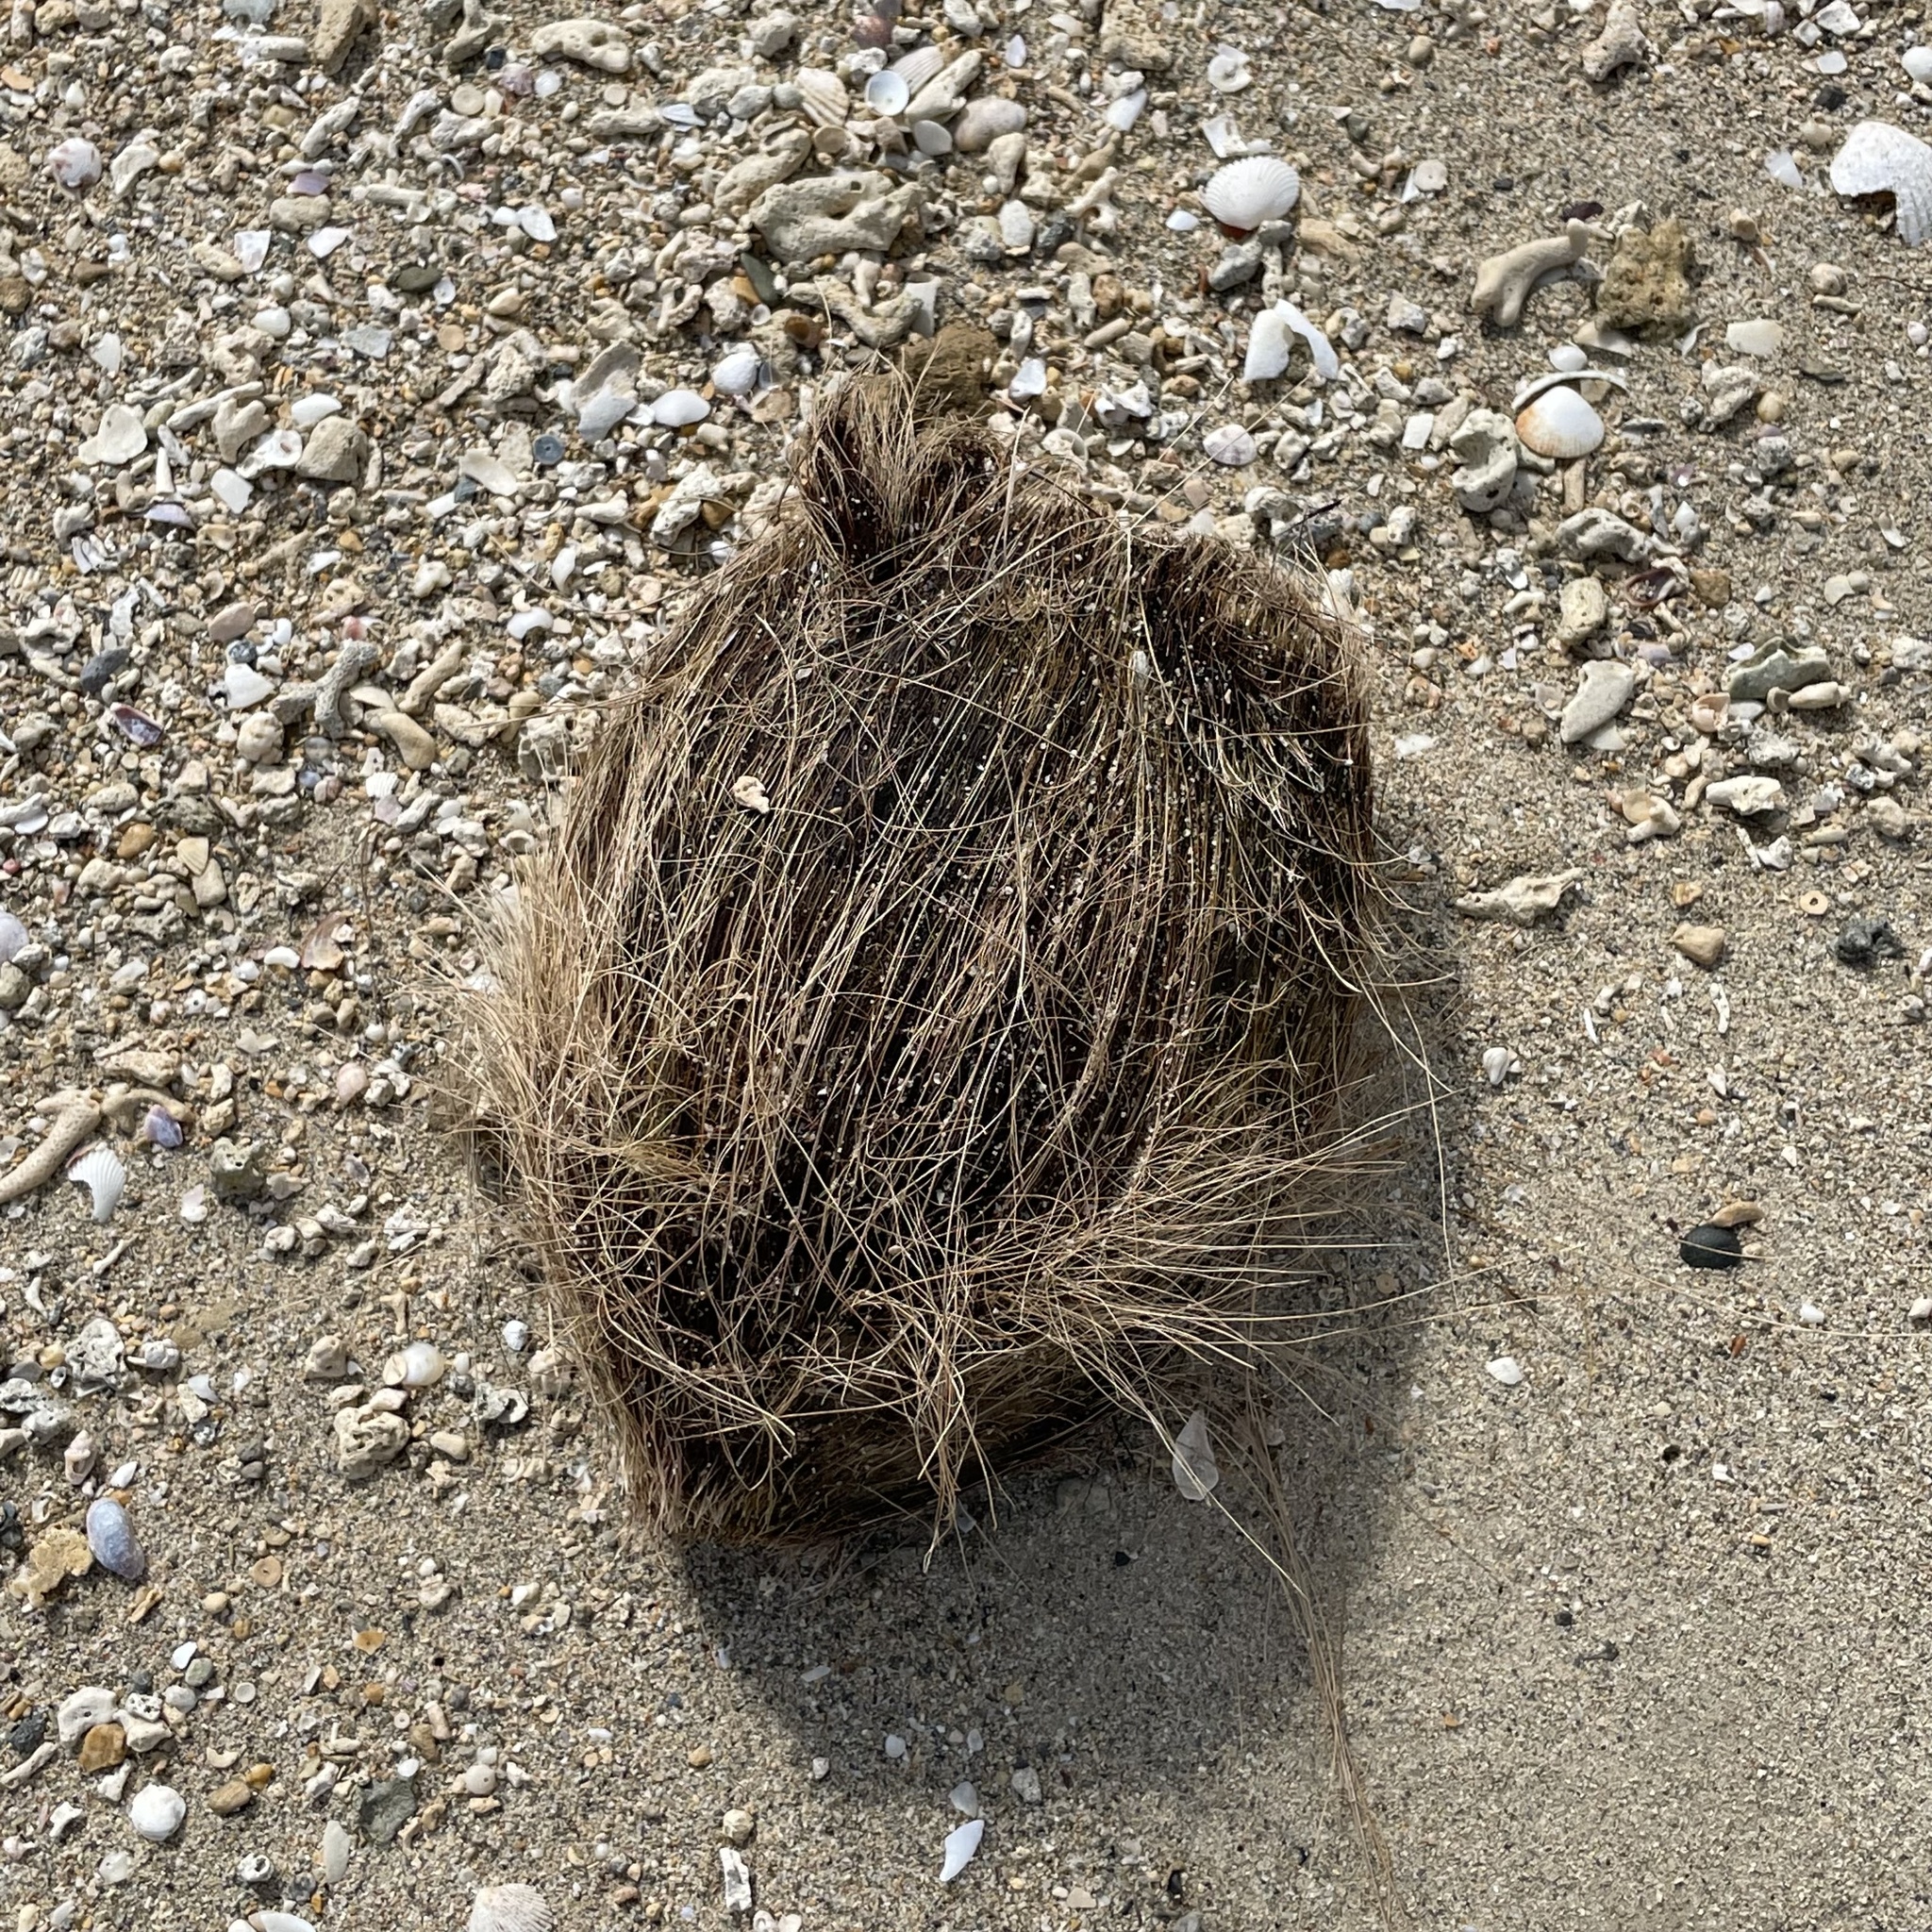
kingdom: Plantae
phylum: Tracheophyta
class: Liliopsida
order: Arecales
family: Arecaceae
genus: Cocos
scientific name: Cocos nucifera
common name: Coconut palm
